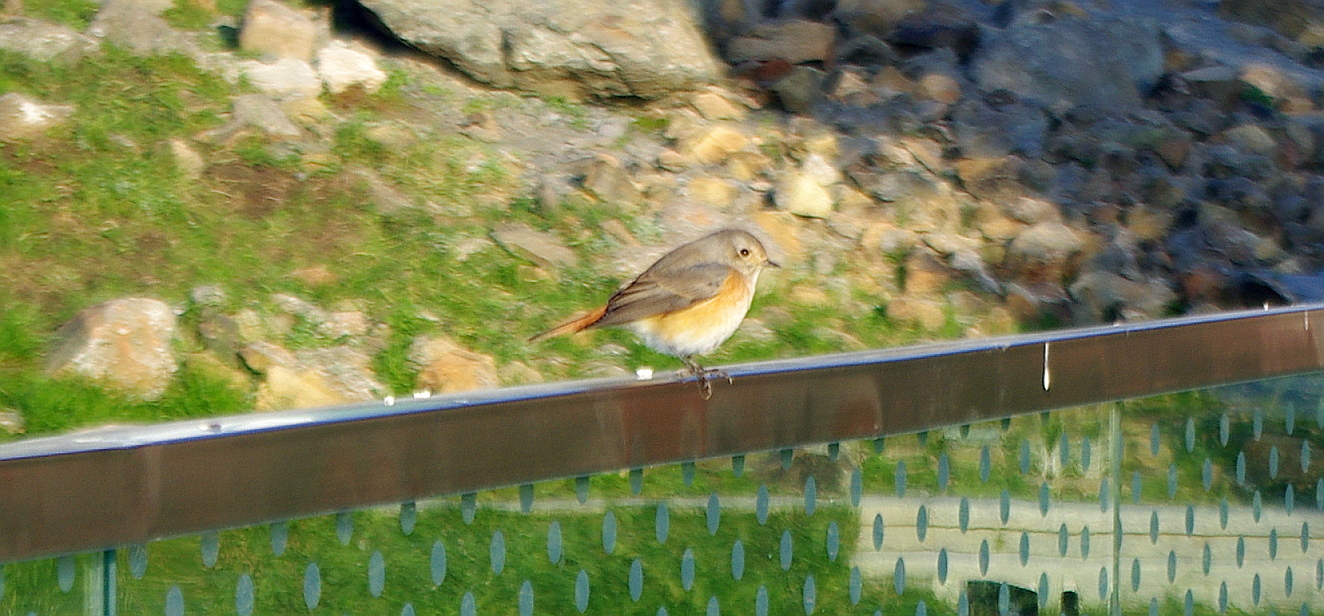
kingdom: Animalia
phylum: Chordata
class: Aves
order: Passeriformes
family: Muscicapidae
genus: Phoenicurus
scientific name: Phoenicurus phoenicurus
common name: Common redstart
